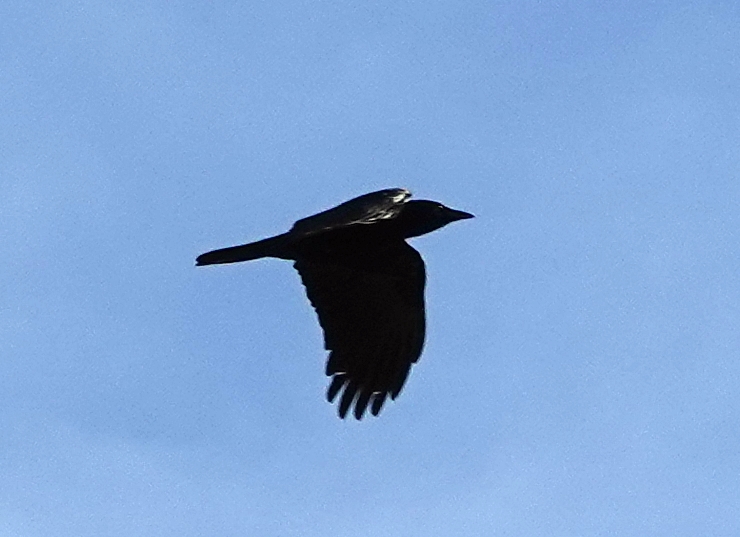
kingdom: Animalia
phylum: Chordata
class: Aves
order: Passeriformes
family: Corvidae
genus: Corvus
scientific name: Corvus brachyrhynchos
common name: American crow
